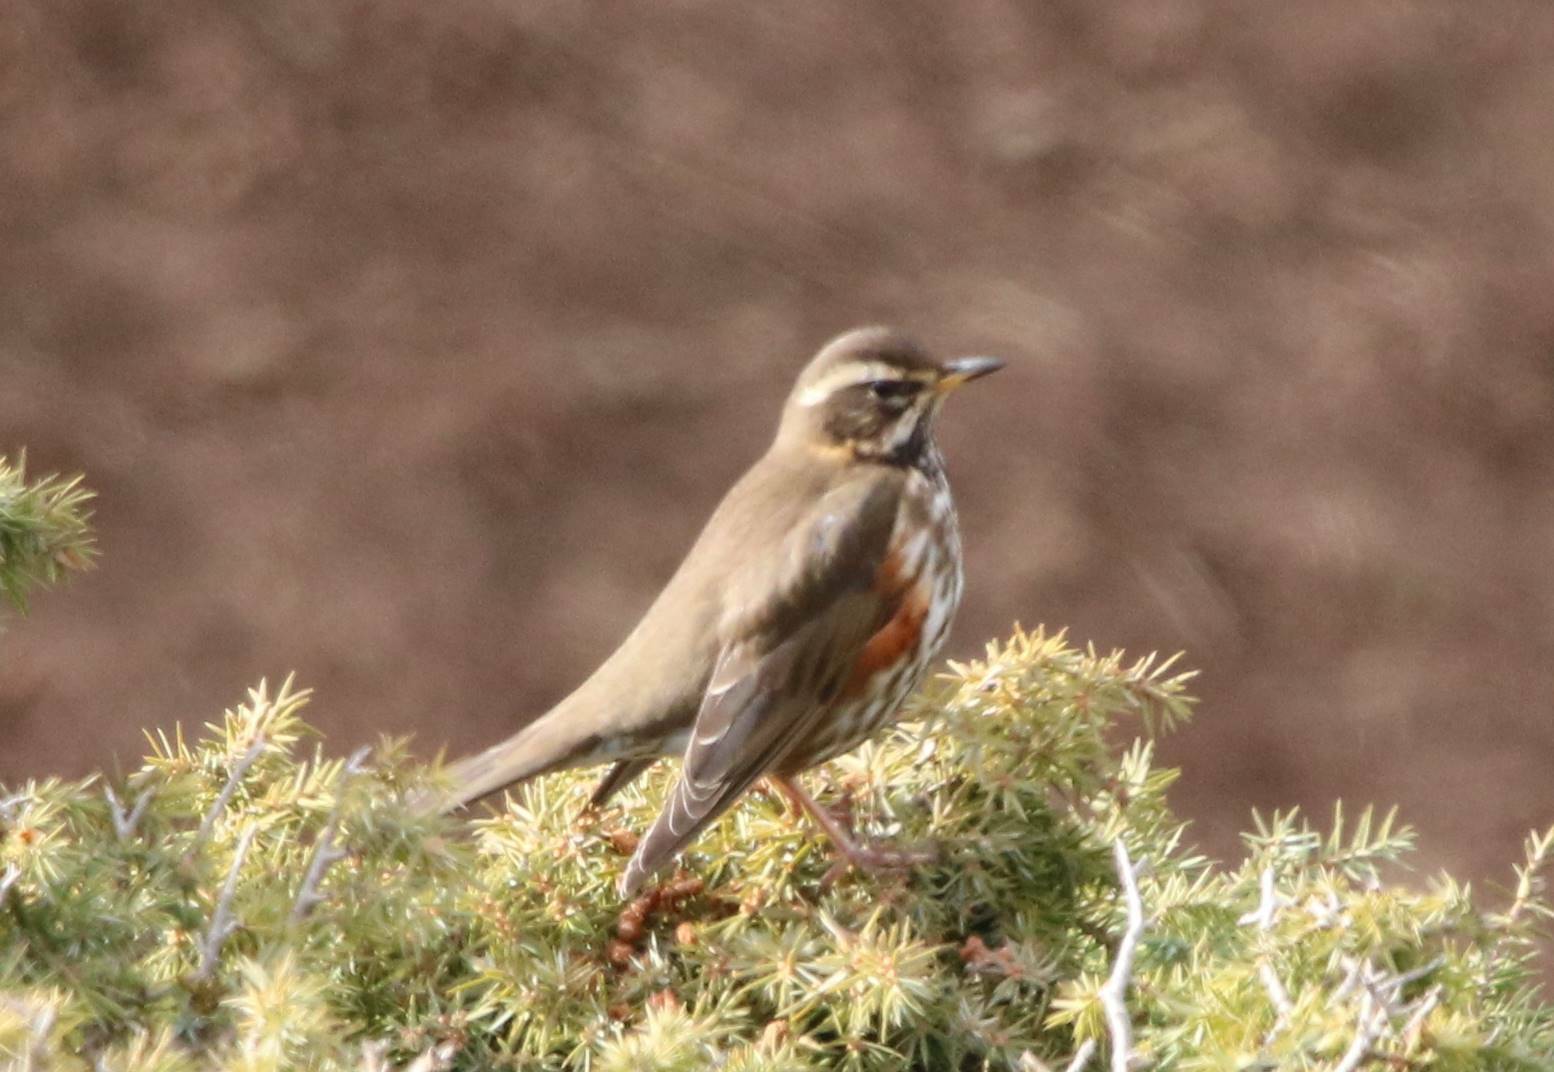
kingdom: Animalia
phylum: Chordata
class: Aves
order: Passeriformes
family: Turdidae
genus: Turdus
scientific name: Turdus iliacus
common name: Redwing
